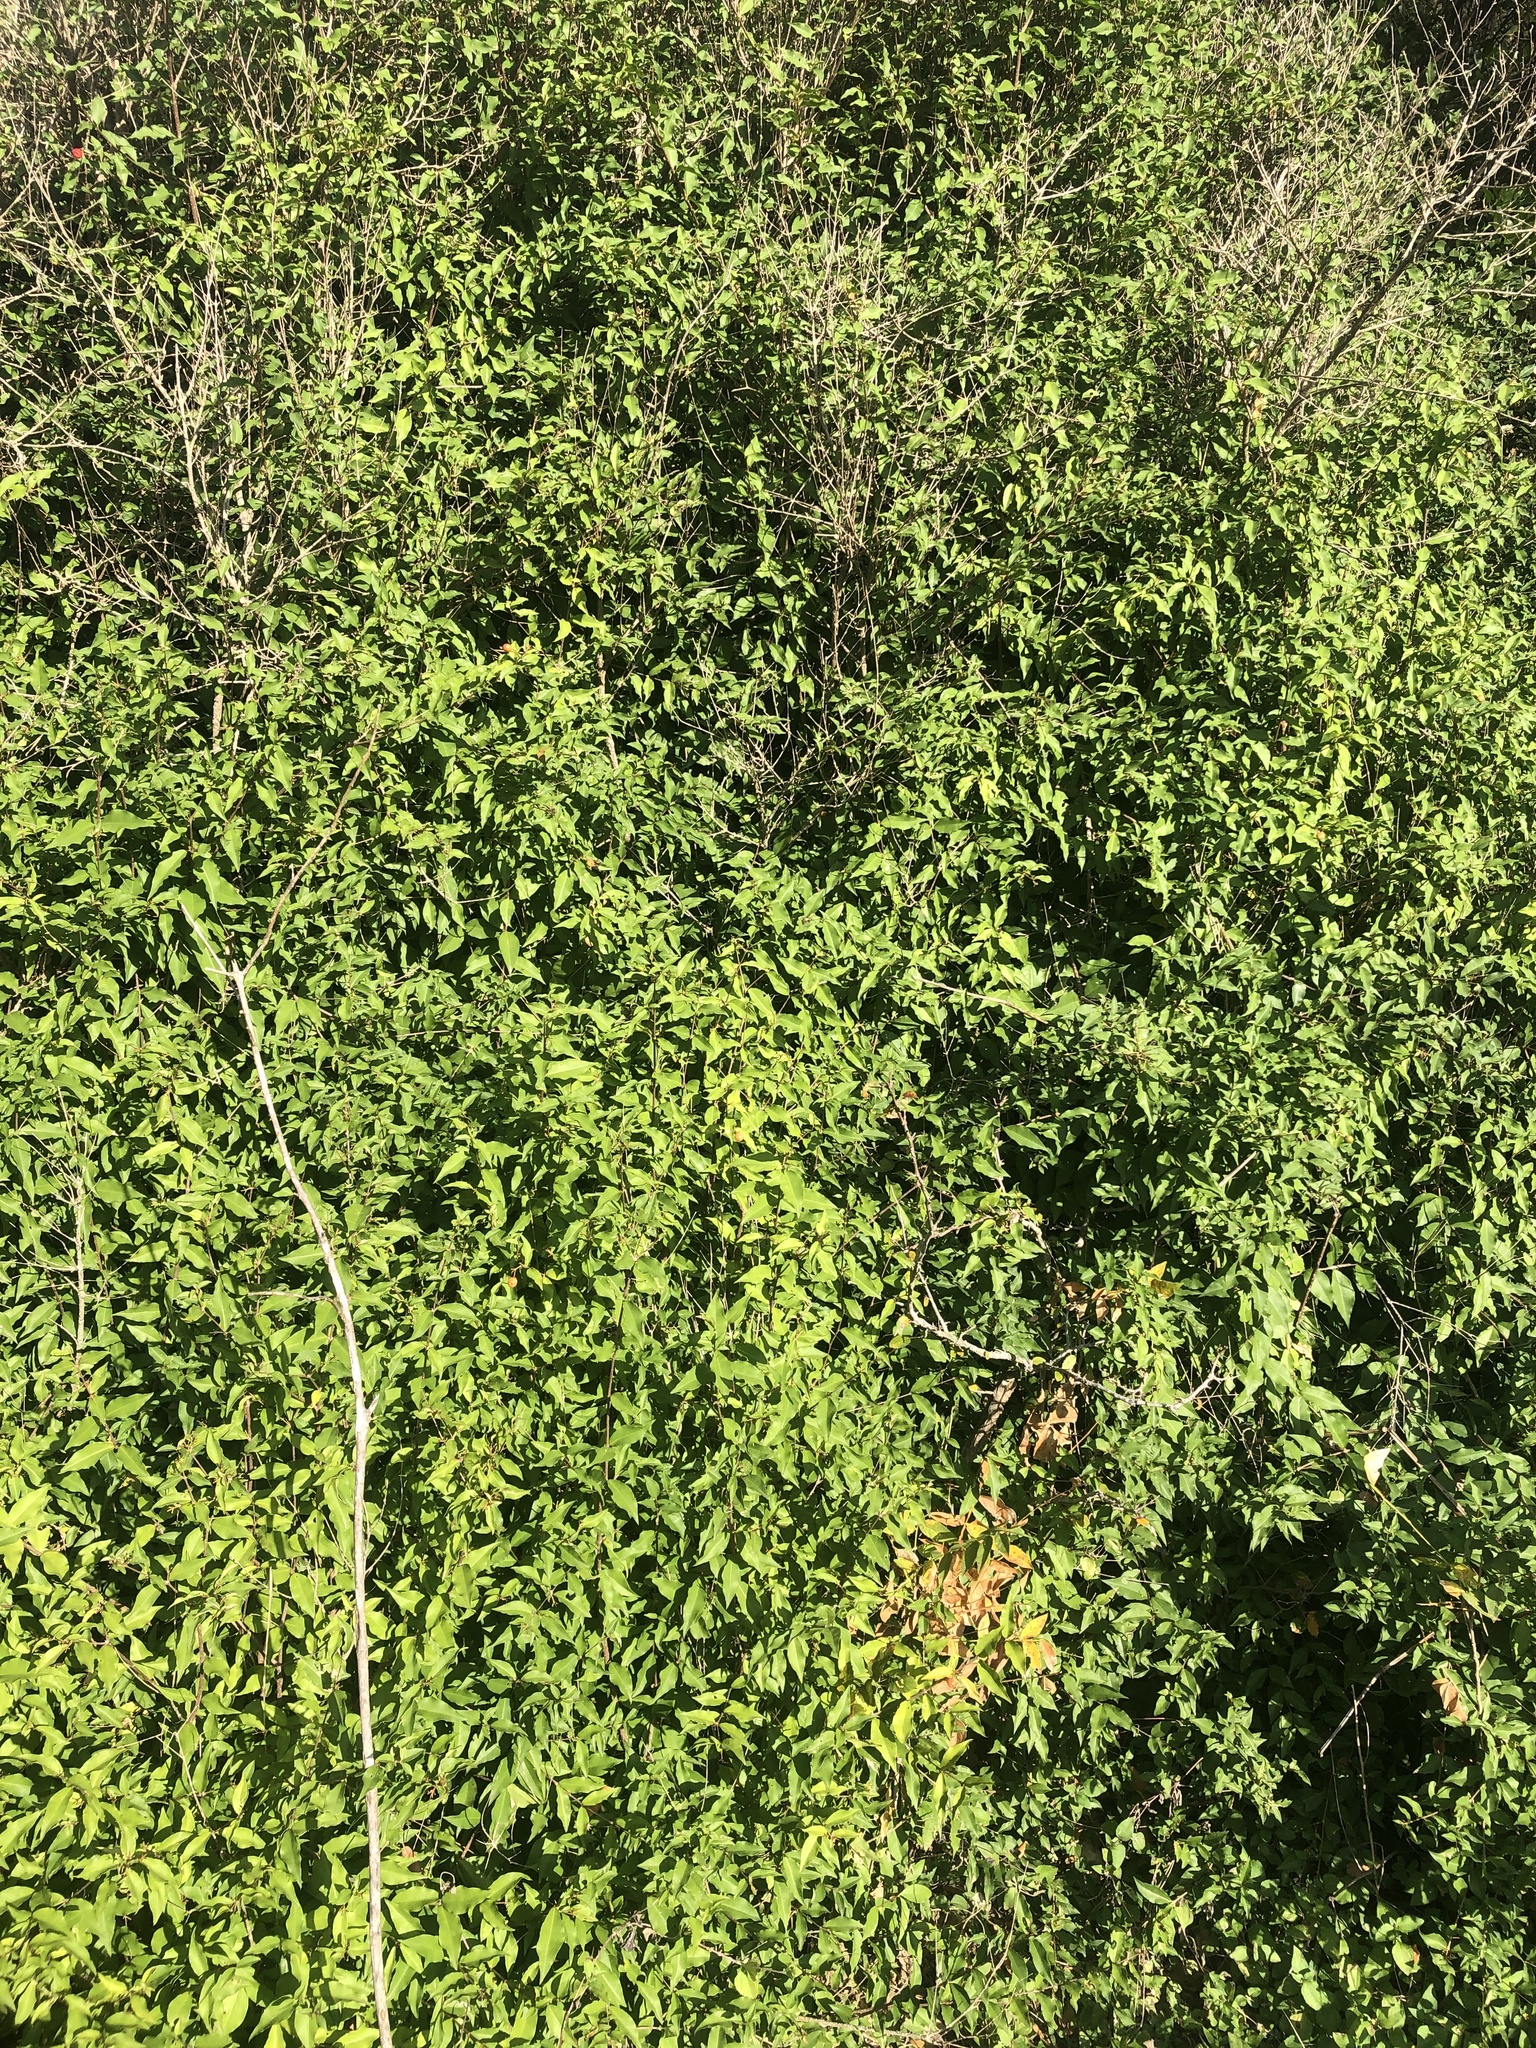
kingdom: Plantae
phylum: Tracheophyta
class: Magnoliopsida
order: Malpighiales
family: Malpighiaceae
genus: Malpighia
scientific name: Malpighia glabra
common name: Barbados cherry
